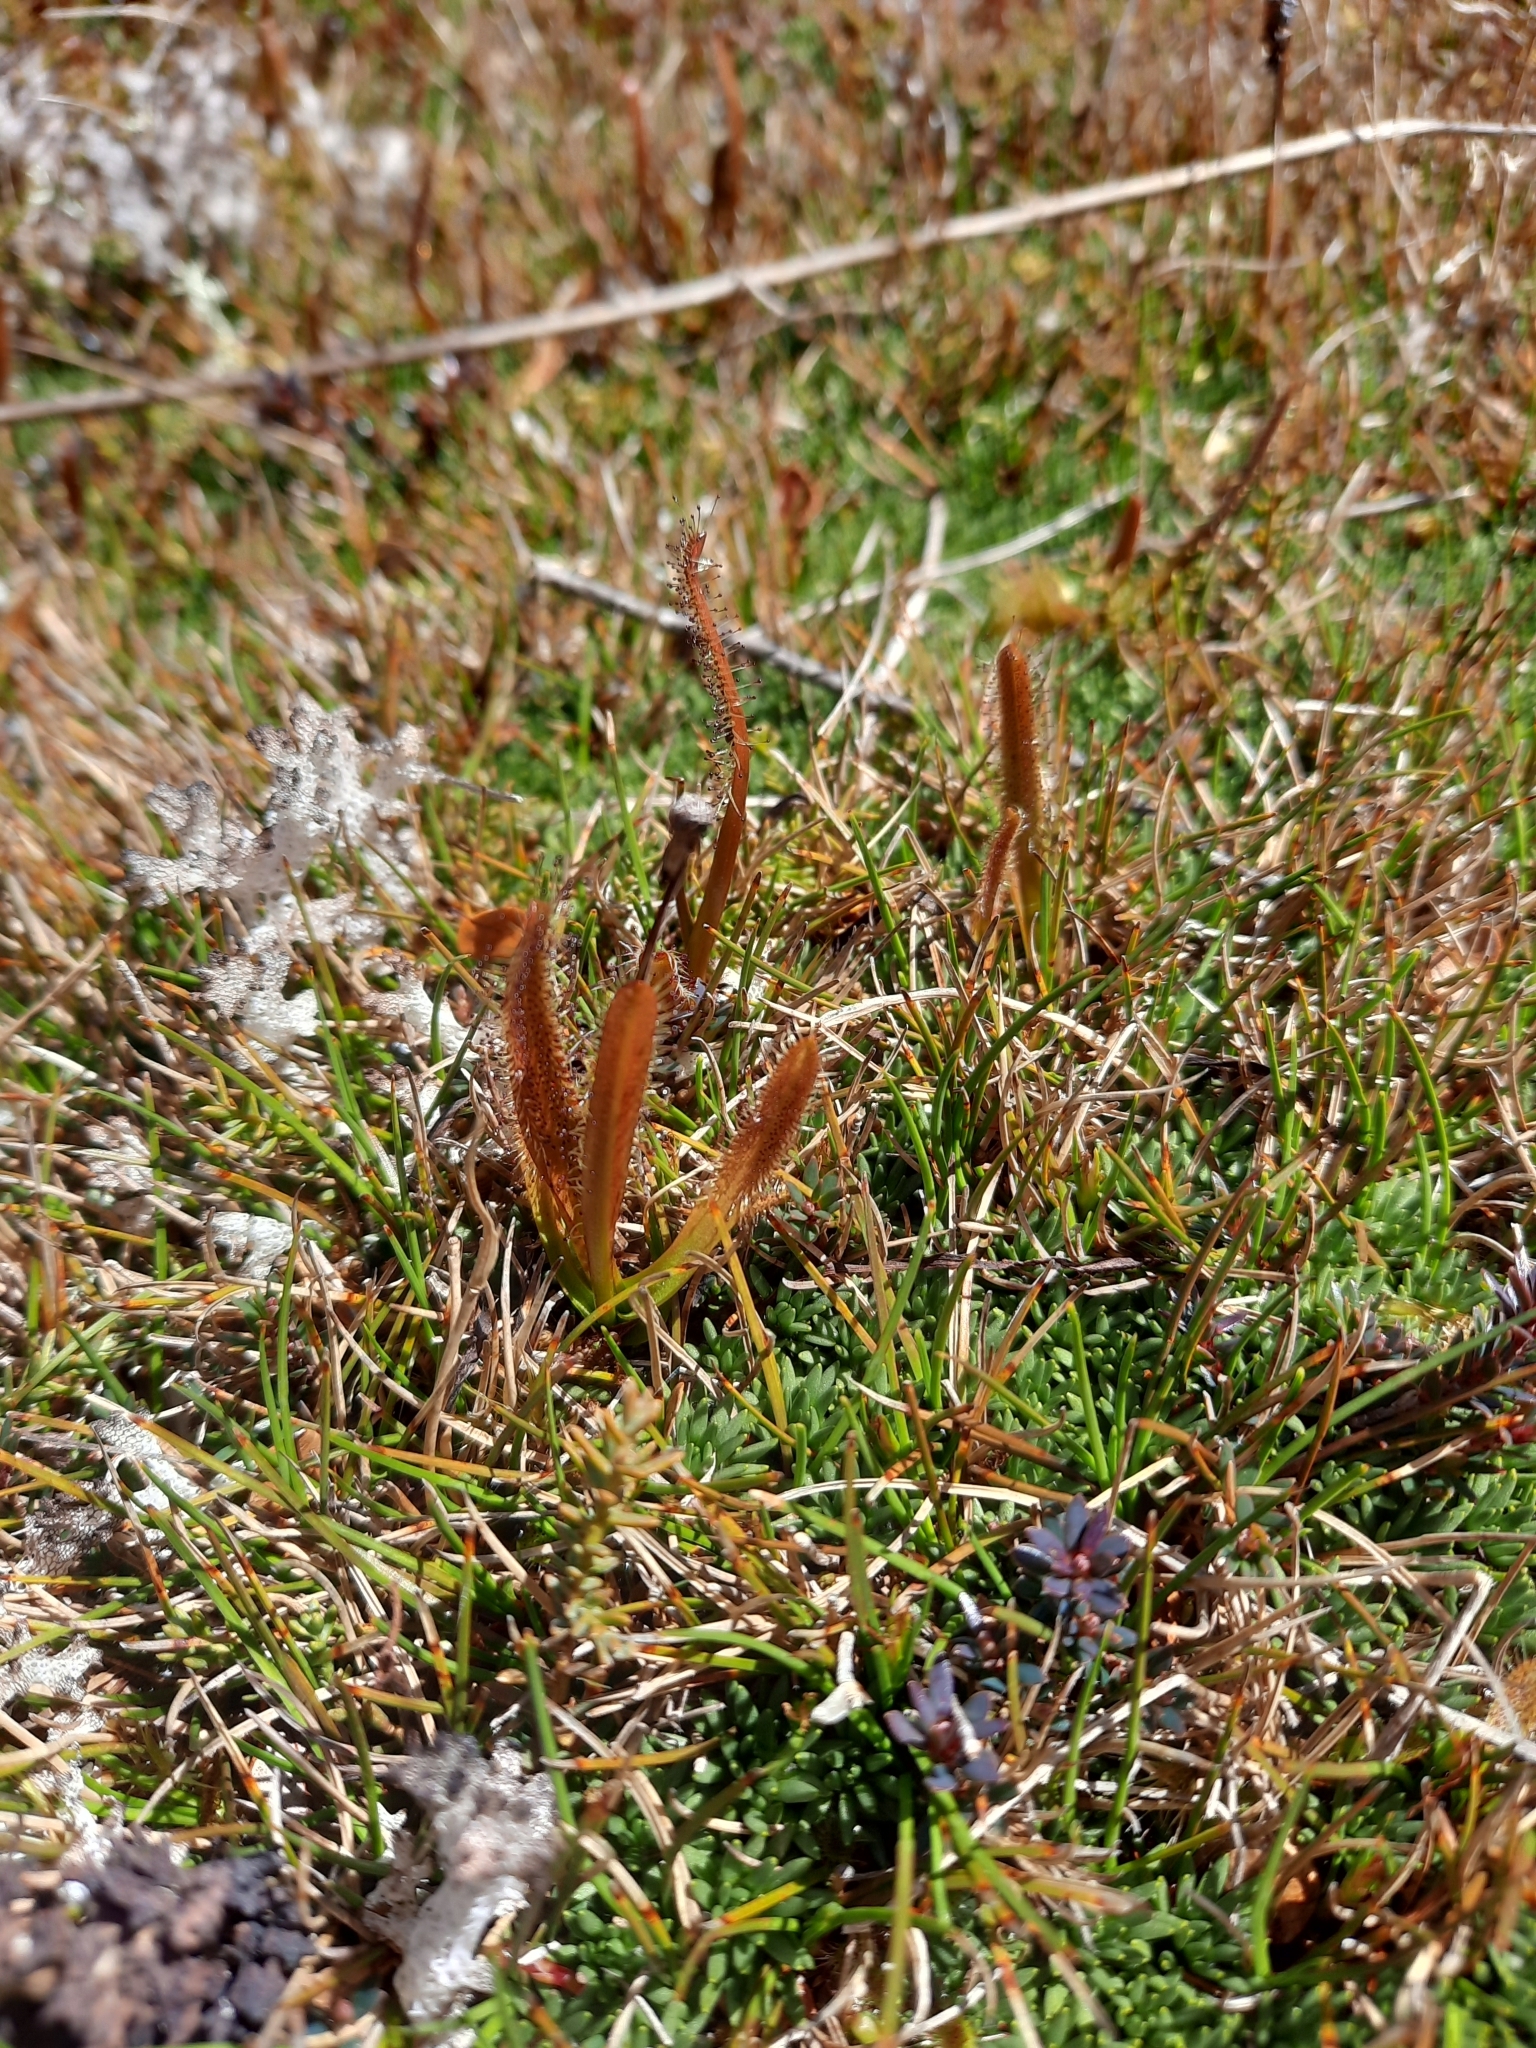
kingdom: Plantae
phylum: Tracheophyta
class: Magnoliopsida
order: Caryophyllales
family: Droseraceae
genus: Drosera
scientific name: Drosera arcturi
